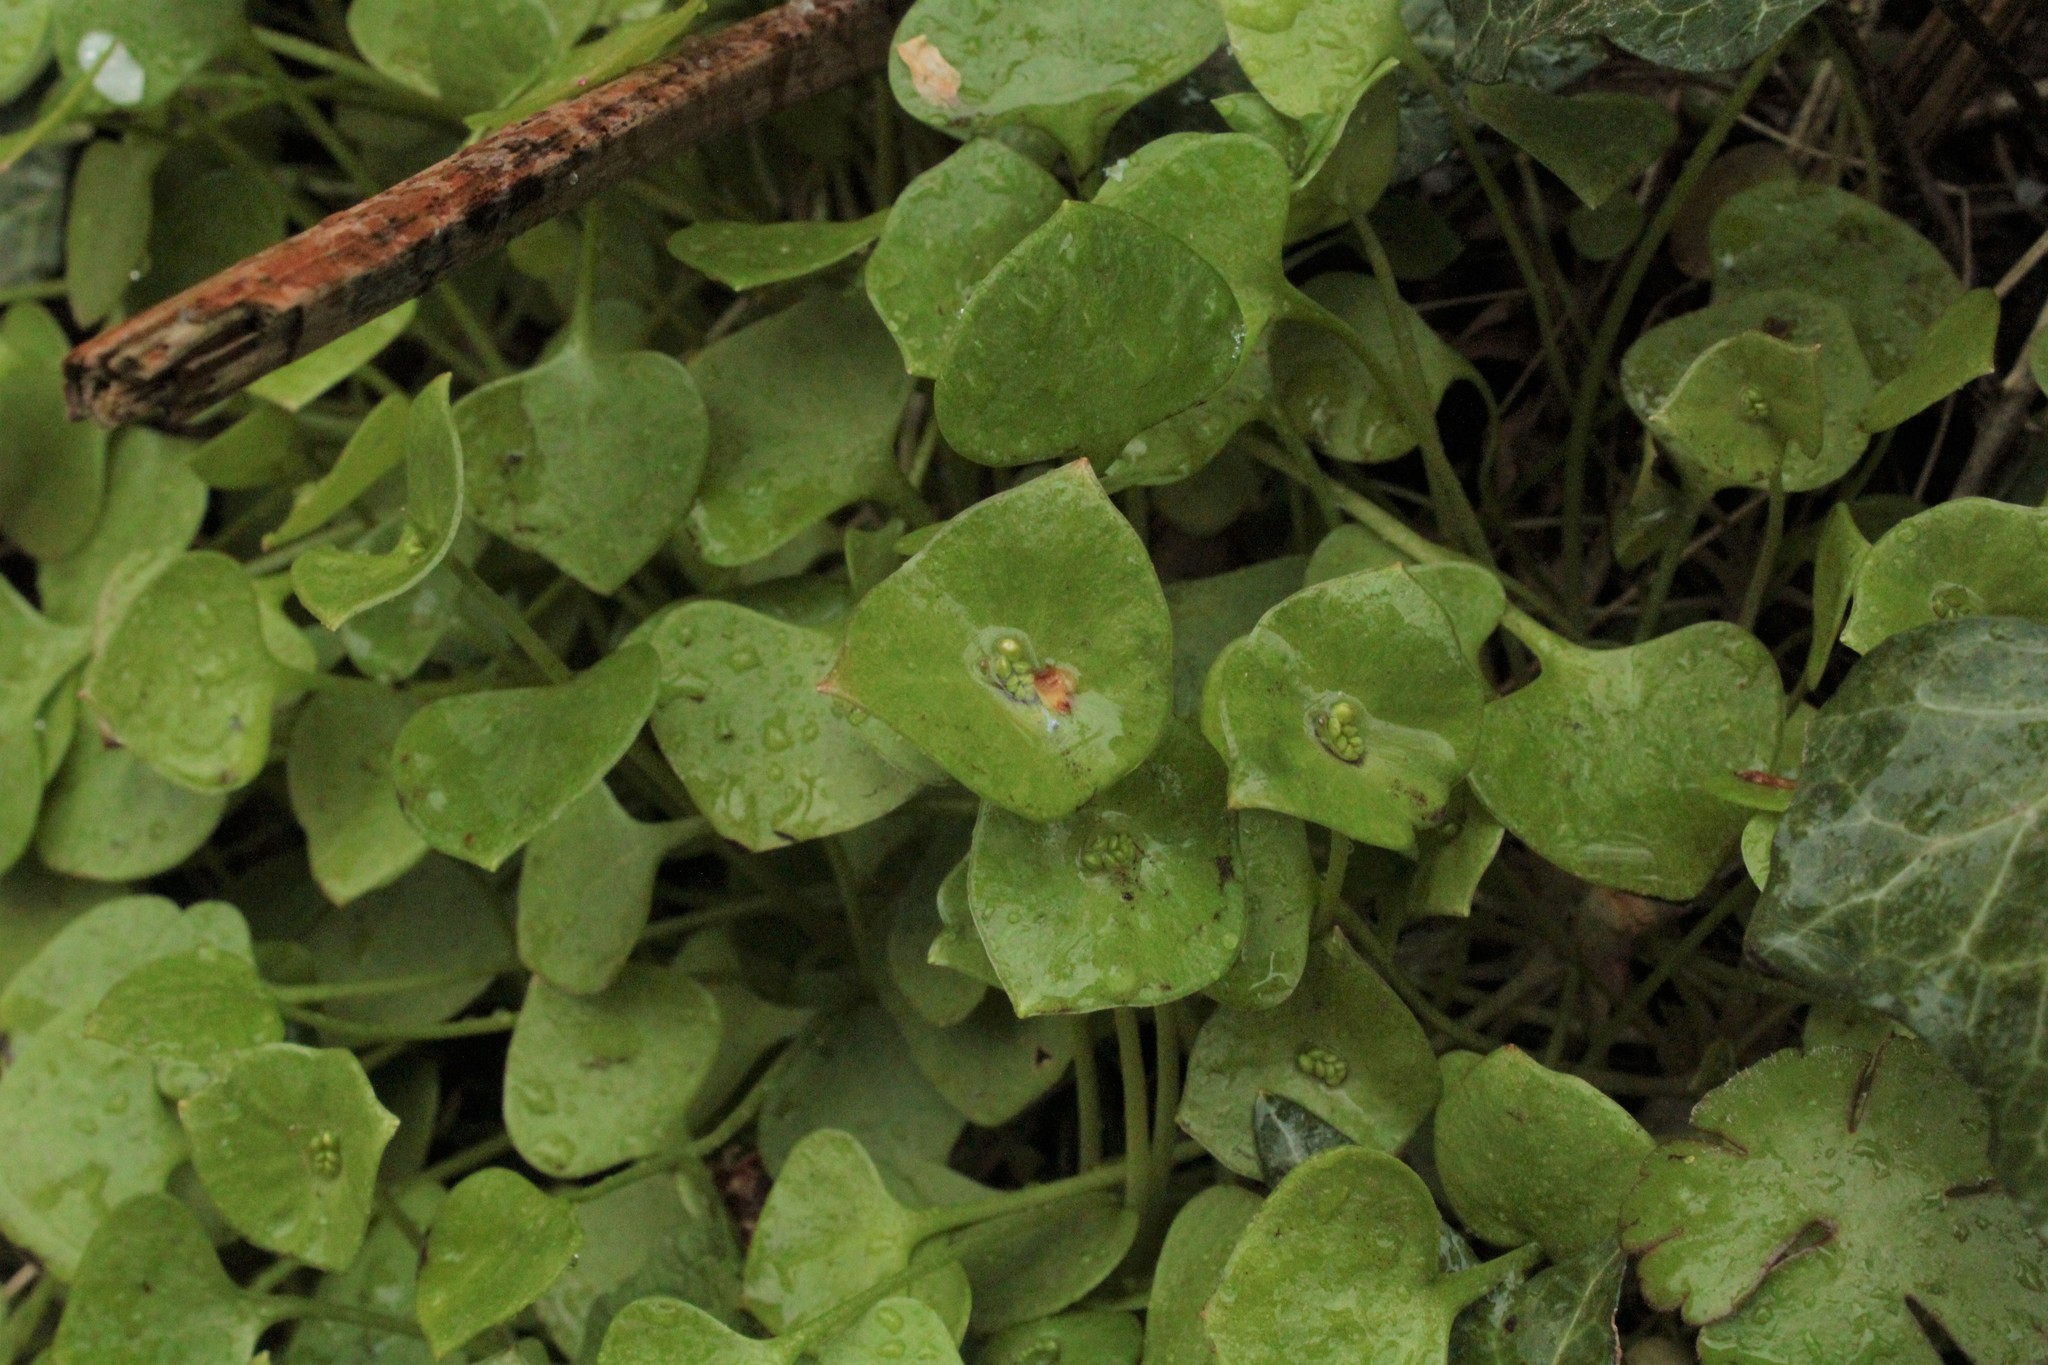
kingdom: Plantae
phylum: Tracheophyta
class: Magnoliopsida
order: Caryophyllales
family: Montiaceae
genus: Claytonia
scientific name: Claytonia perfoliata
